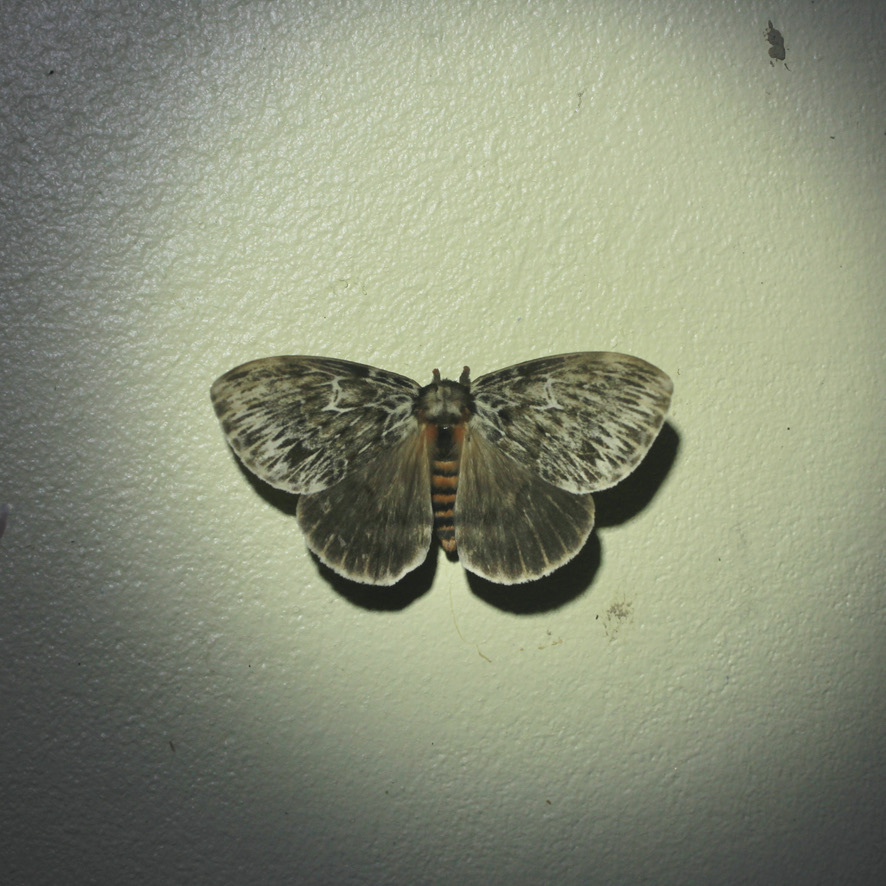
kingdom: Animalia
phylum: Arthropoda
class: Insecta
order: Lepidoptera
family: Saturniidae
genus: Dirphia
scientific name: Dirphia radiata
